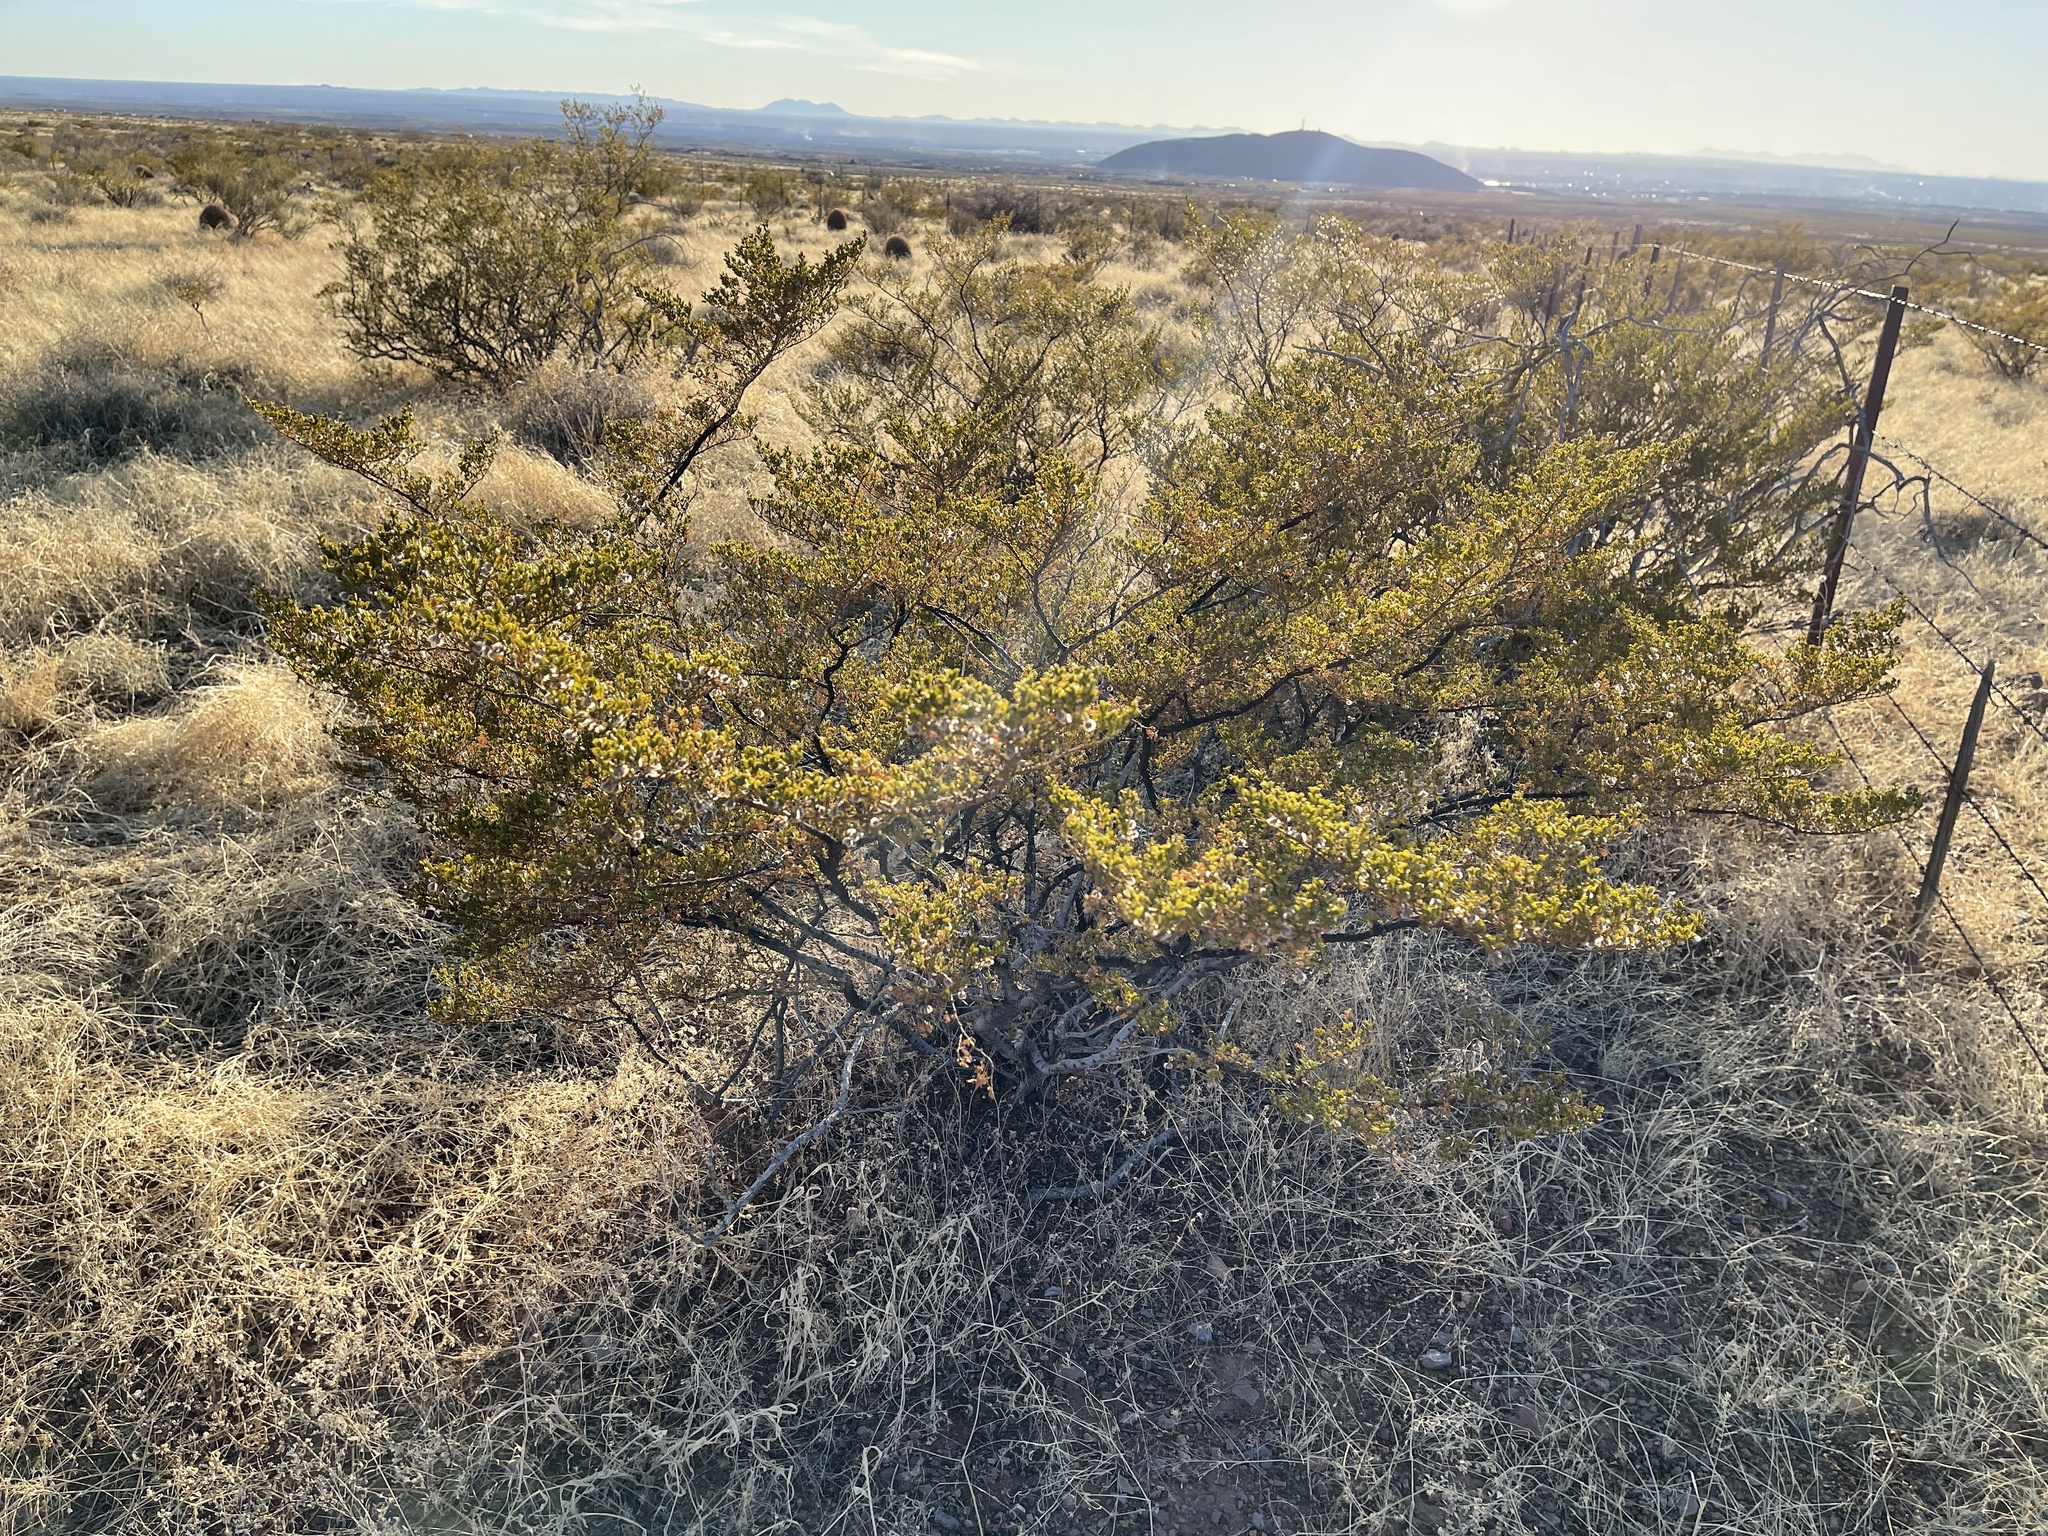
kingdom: Plantae
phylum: Tracheophyta
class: Magnoliopsida
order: Zygophyllales
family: Zygophyllaceae
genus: Larrea
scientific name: Larrea tridentata
